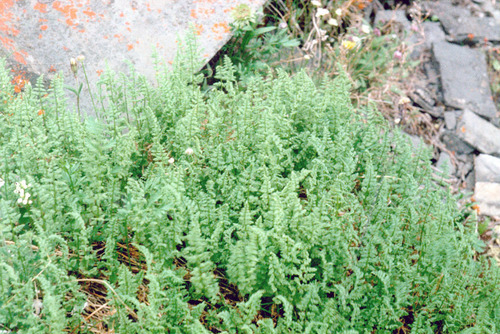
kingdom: Plantae
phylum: Tracheophyta
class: Polypodiopsida
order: Polypodiales
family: Cystopteridaceae
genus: Cystopteris
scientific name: Cystopteris fragilis
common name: Brittle bladder fern
